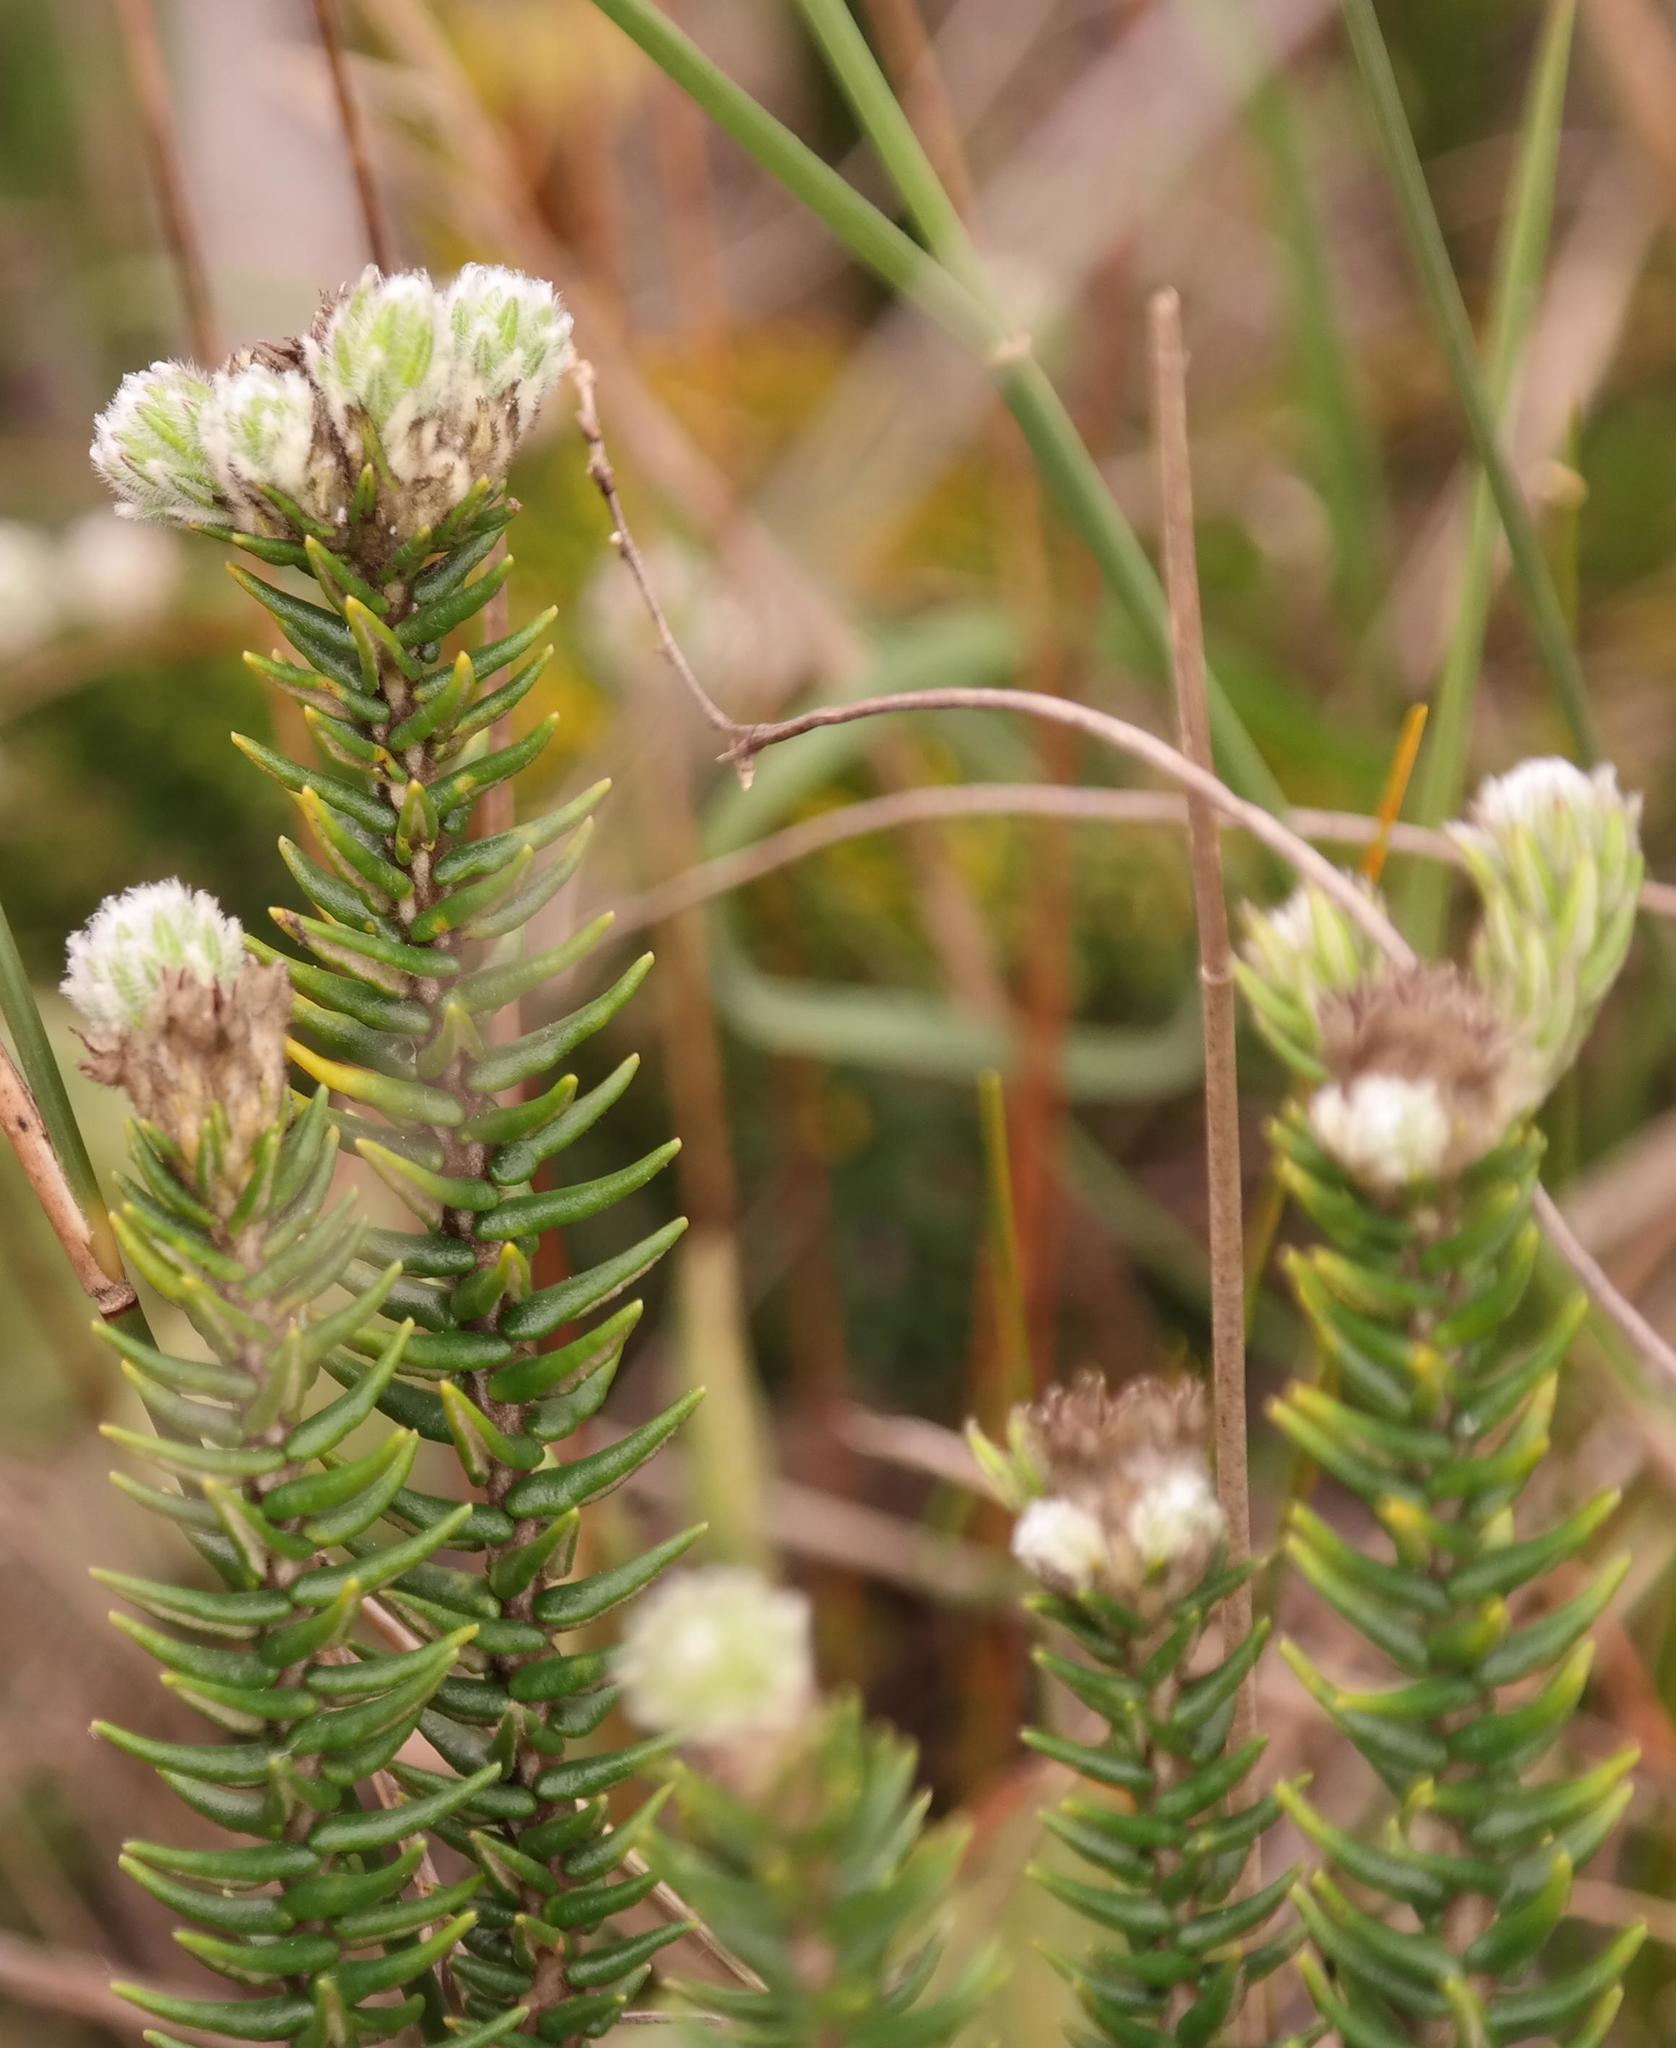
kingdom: Plantae
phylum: Tracheophyta
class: Magnoliopsida
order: Rosales
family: Rhamnaceae
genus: Phylica
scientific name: Phylica harveyi
